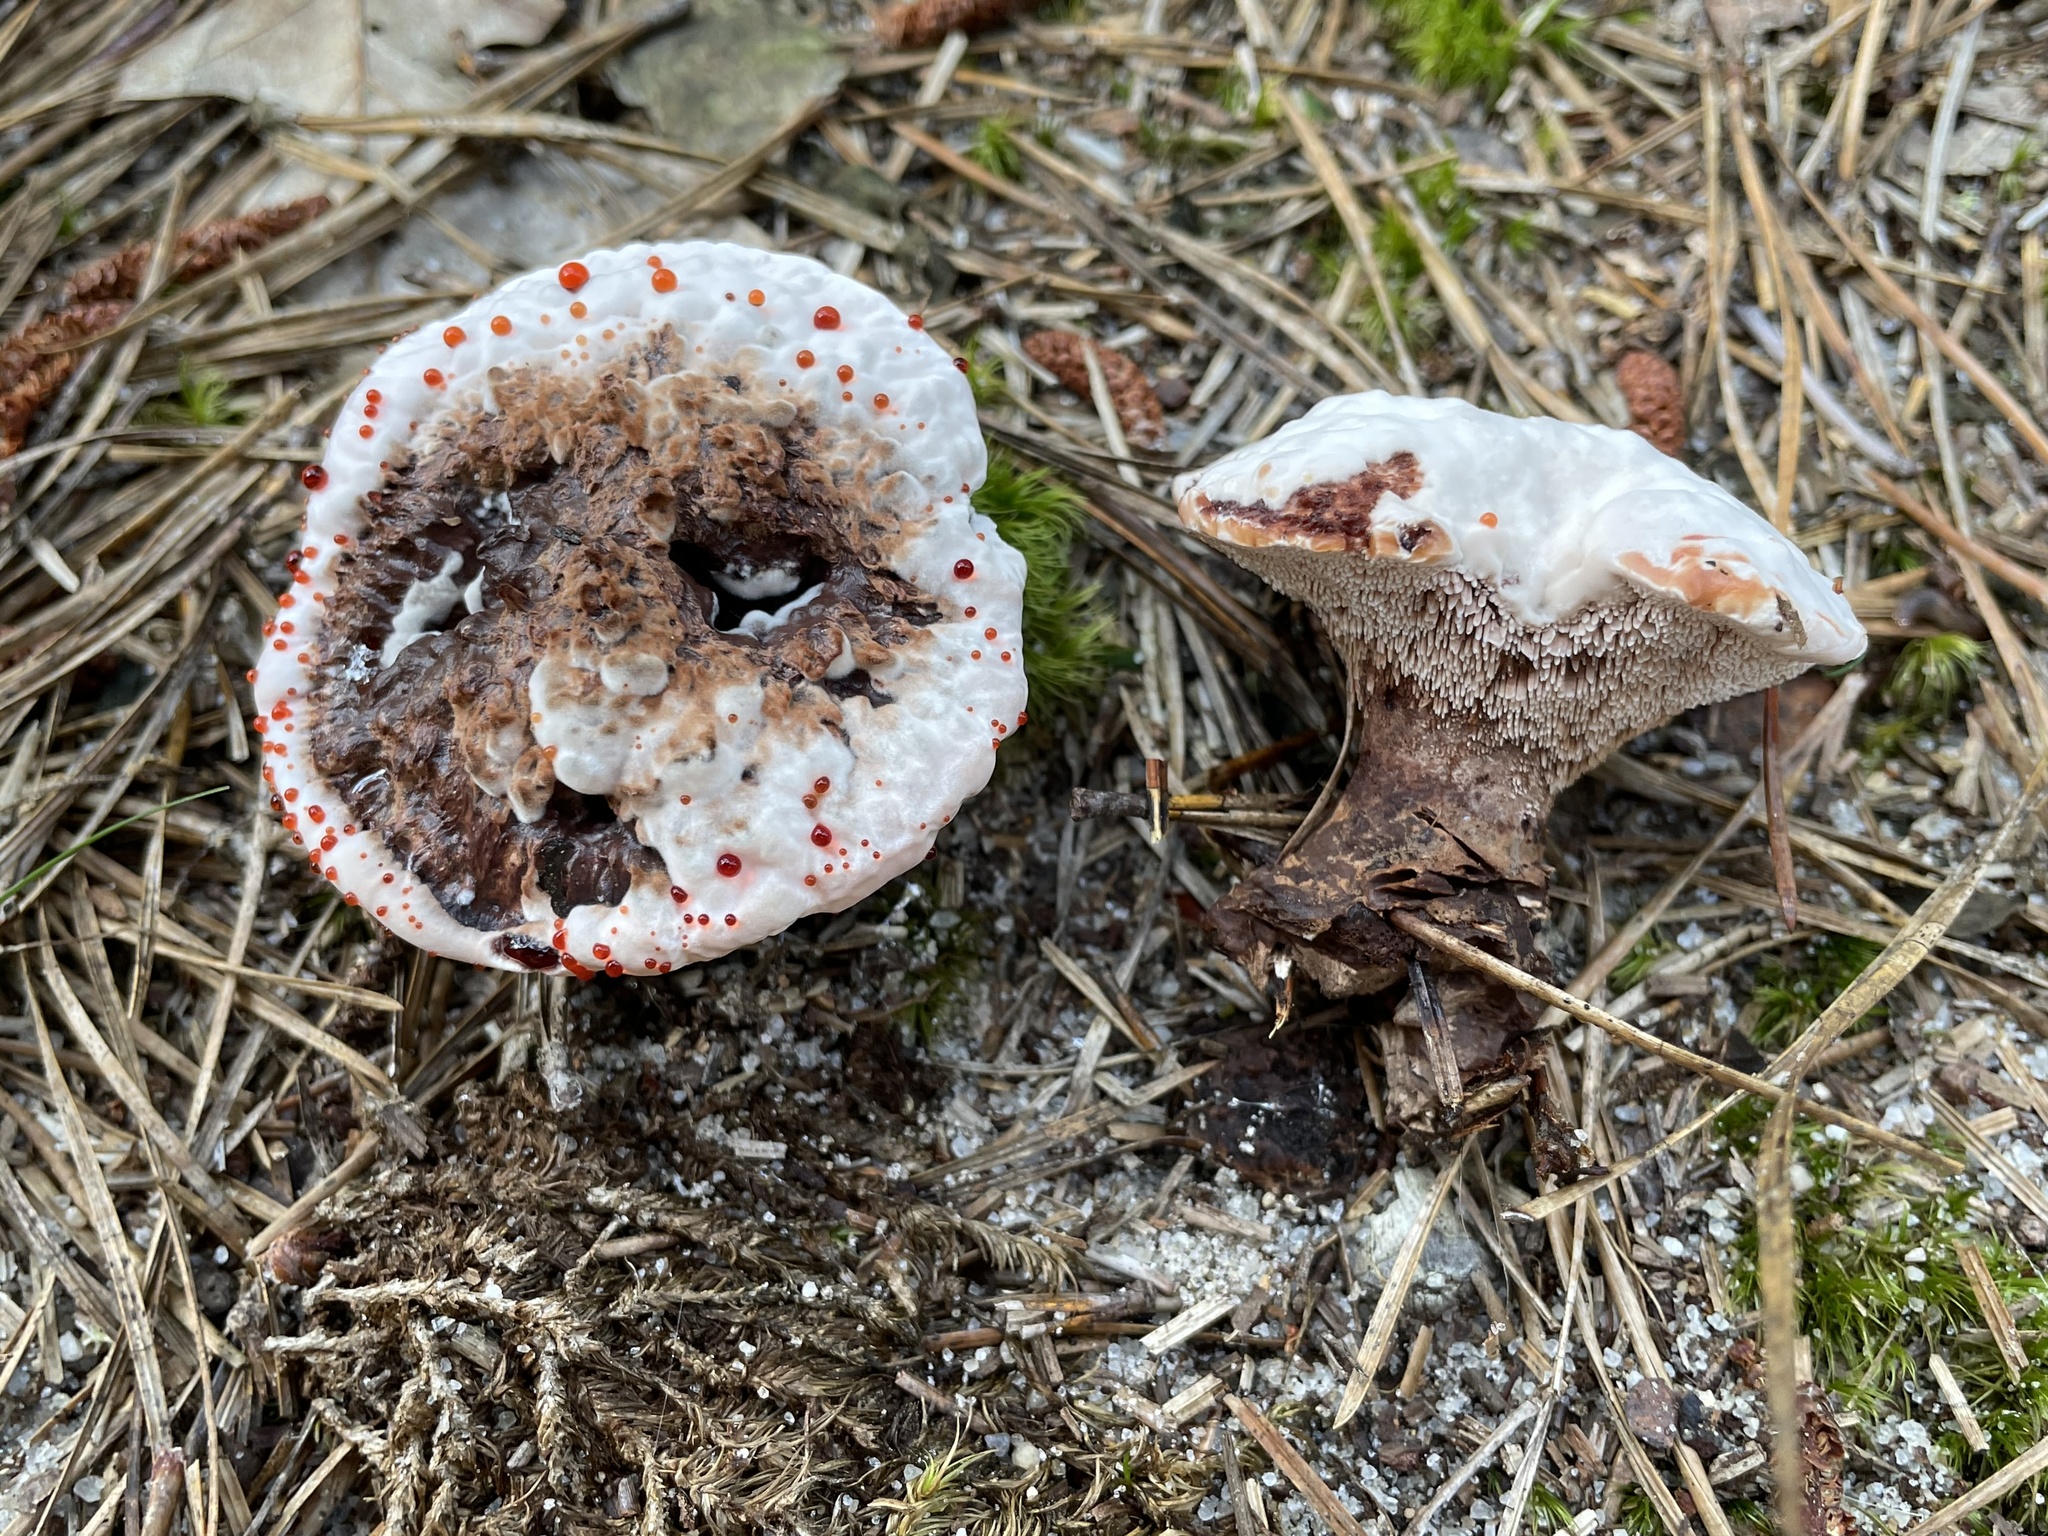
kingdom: Fungi
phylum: Basidiomycota
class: Agaricomycetes
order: Thelephorales
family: Bankeraceae
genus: Hydnellum
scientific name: Hydnellum peckii
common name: Devil's tooth
